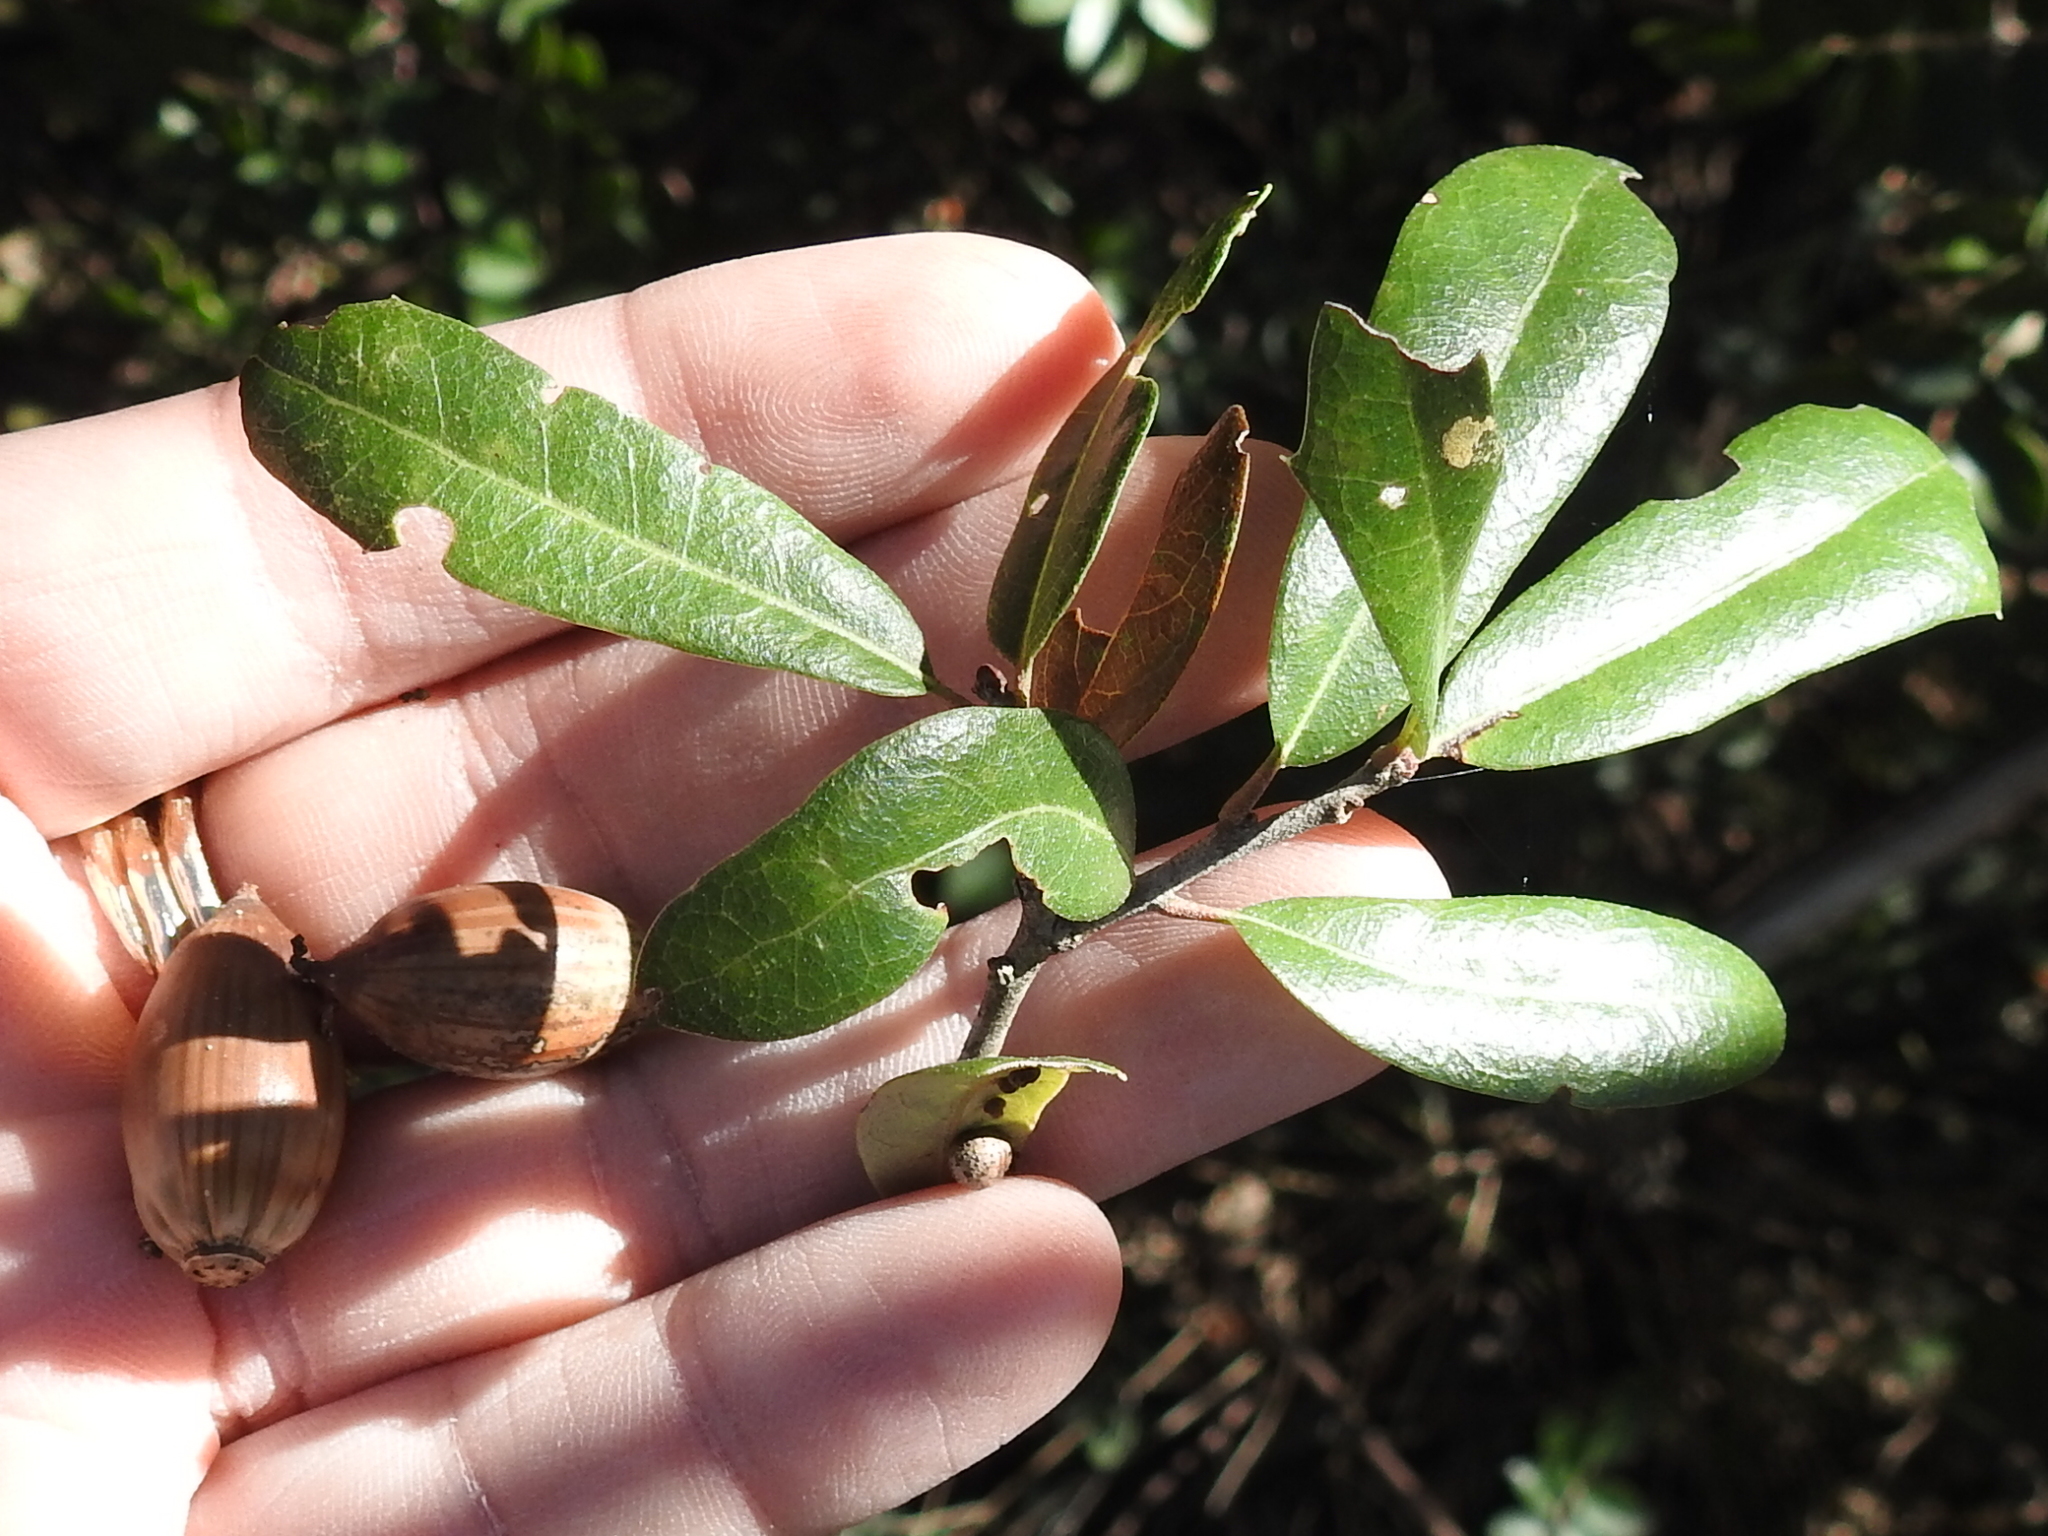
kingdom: Plantae
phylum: Tracheophyta
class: Magnoliopsida
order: Fagales
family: Fagaceae
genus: Quercus
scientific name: Quercus fusiformis
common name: Texas live oak
